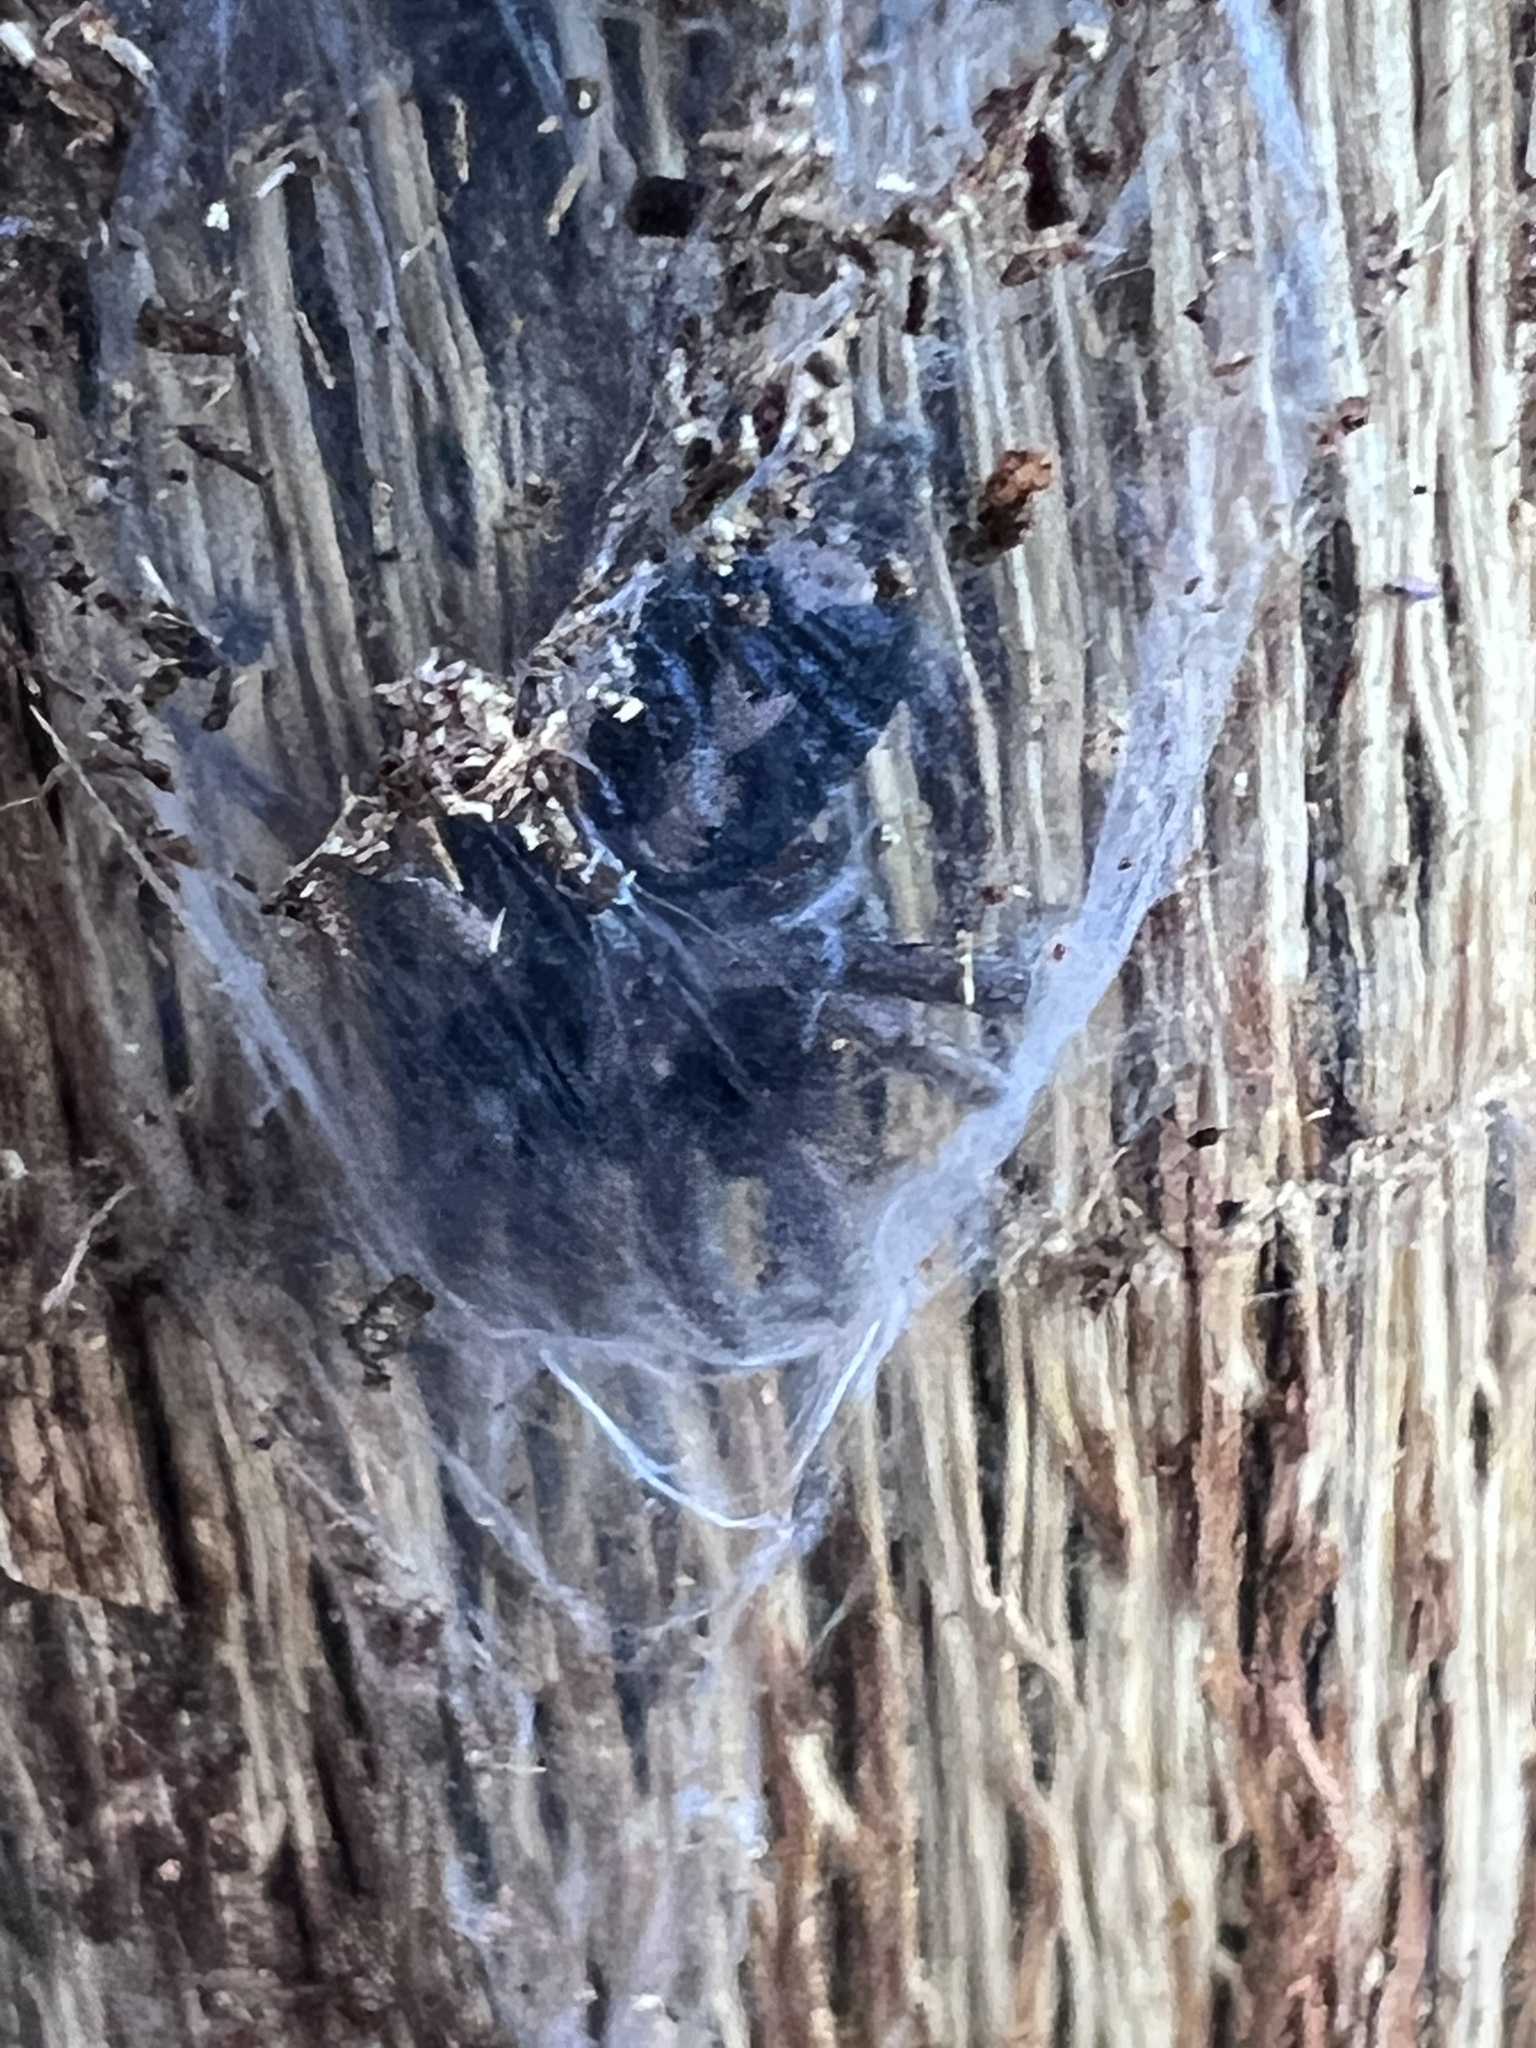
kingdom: Animalia
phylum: Arthropoda
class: Arachnida
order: Araneae
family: Gnaphosidae
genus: Herpyllus
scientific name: Herpyllus ecclesiasticus
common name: Eastern parson spider
